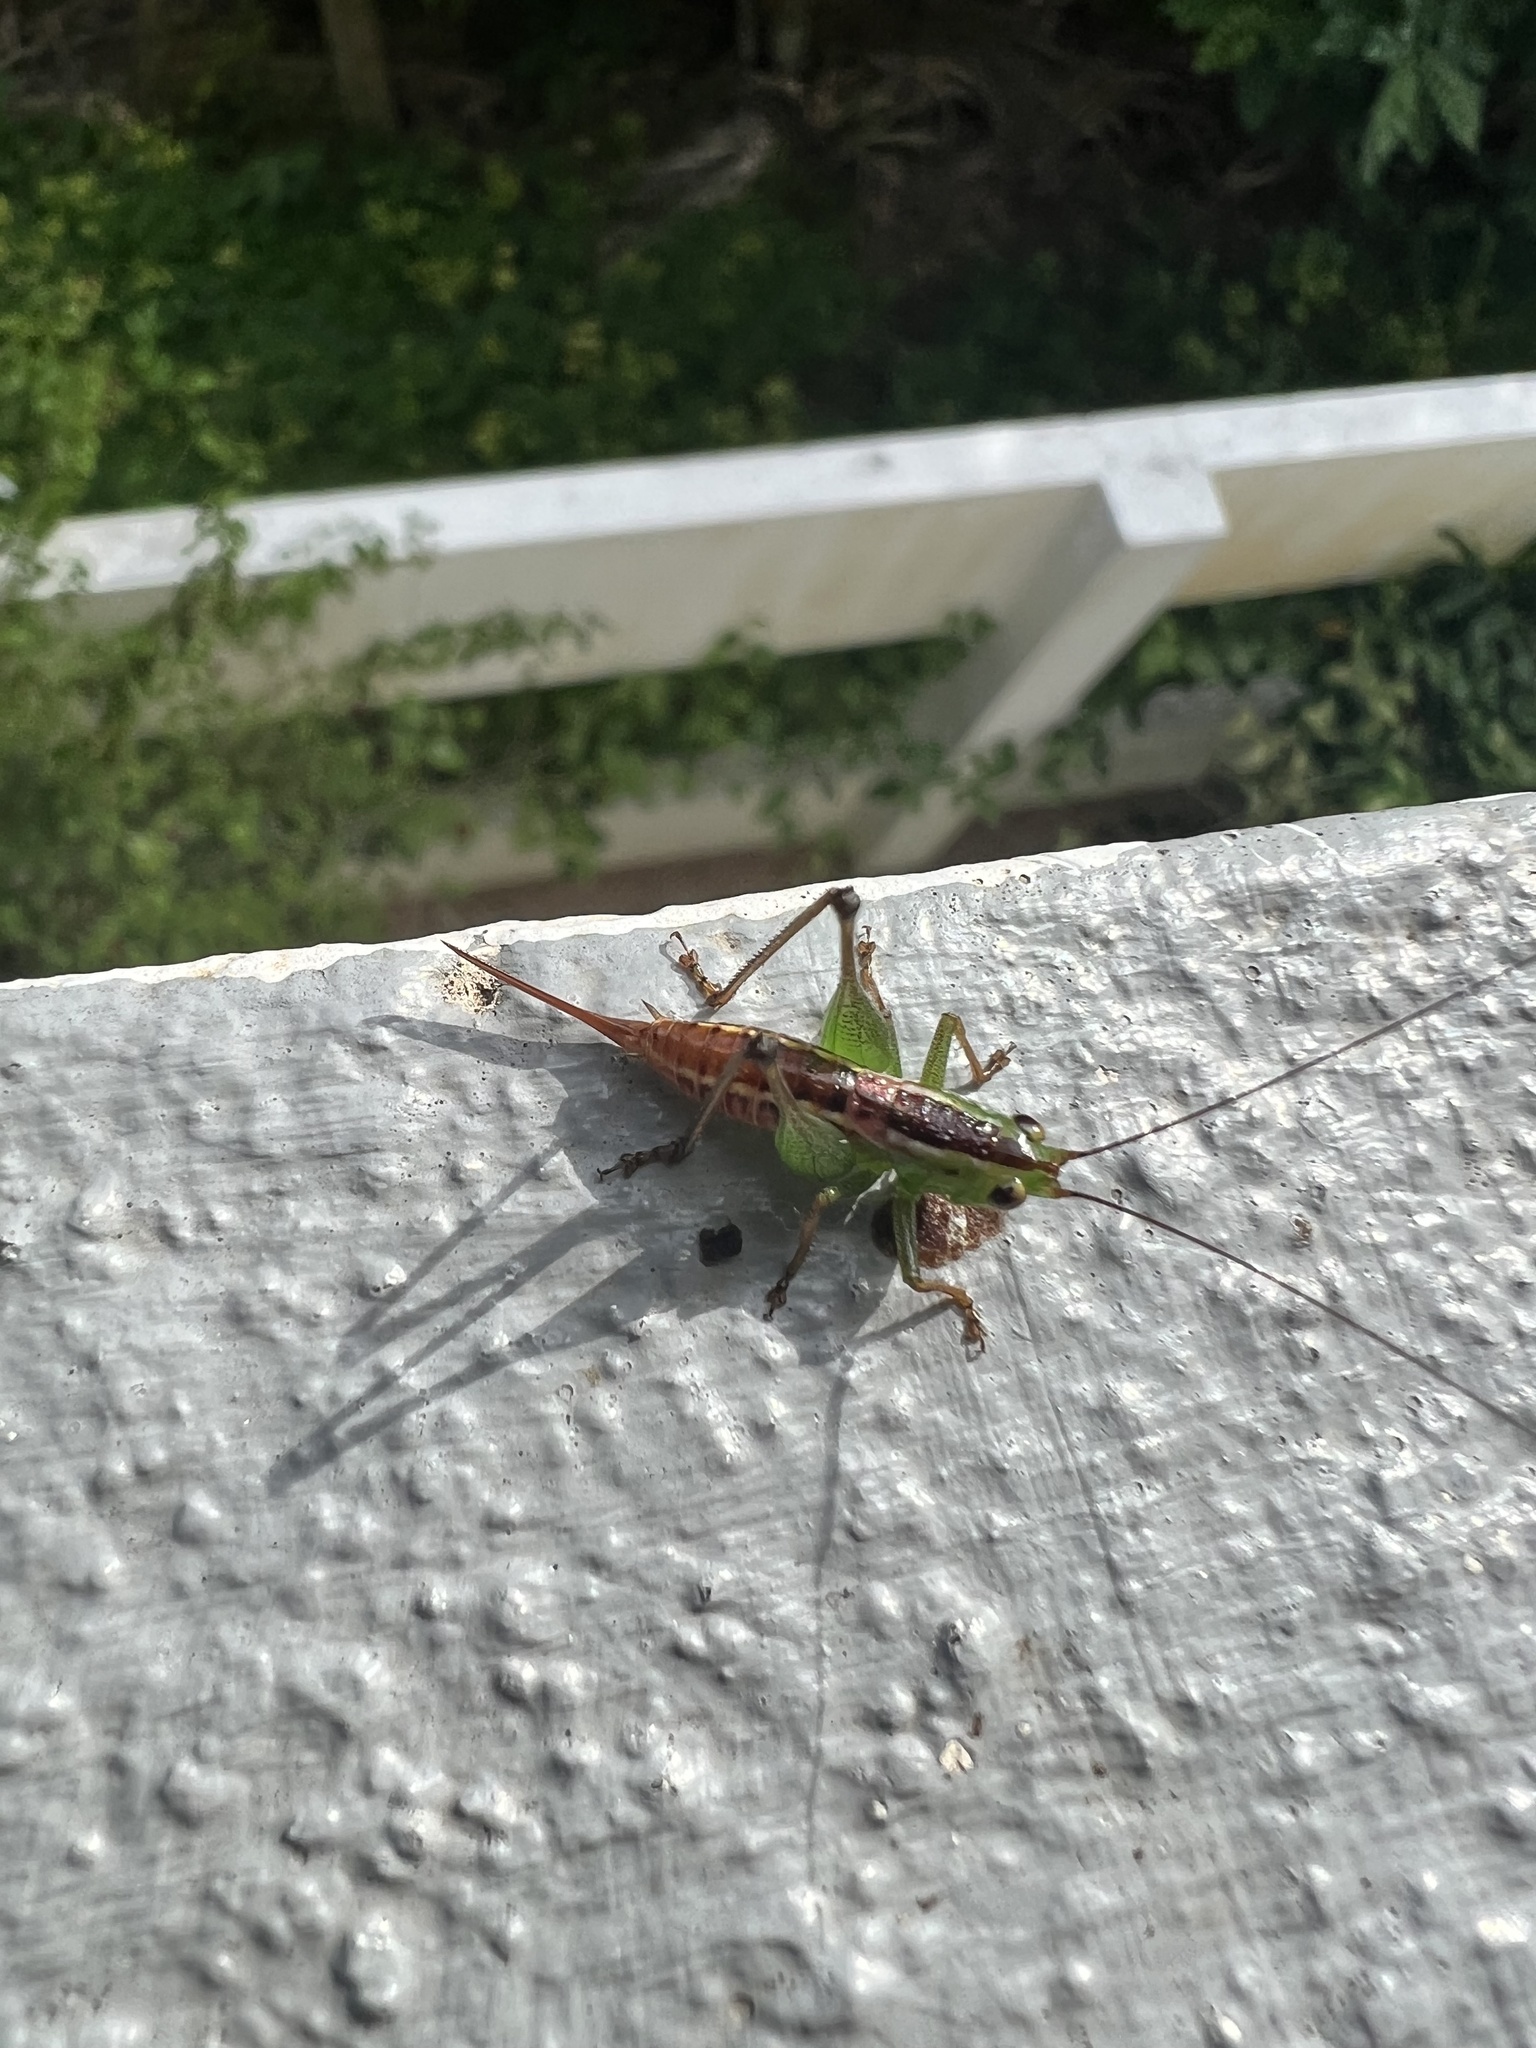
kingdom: Animalia
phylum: Arthropoda
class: Insecta
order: Orthoptera
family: Tettigoniidae
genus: Conocephalus
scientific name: Conocephalus signatus
